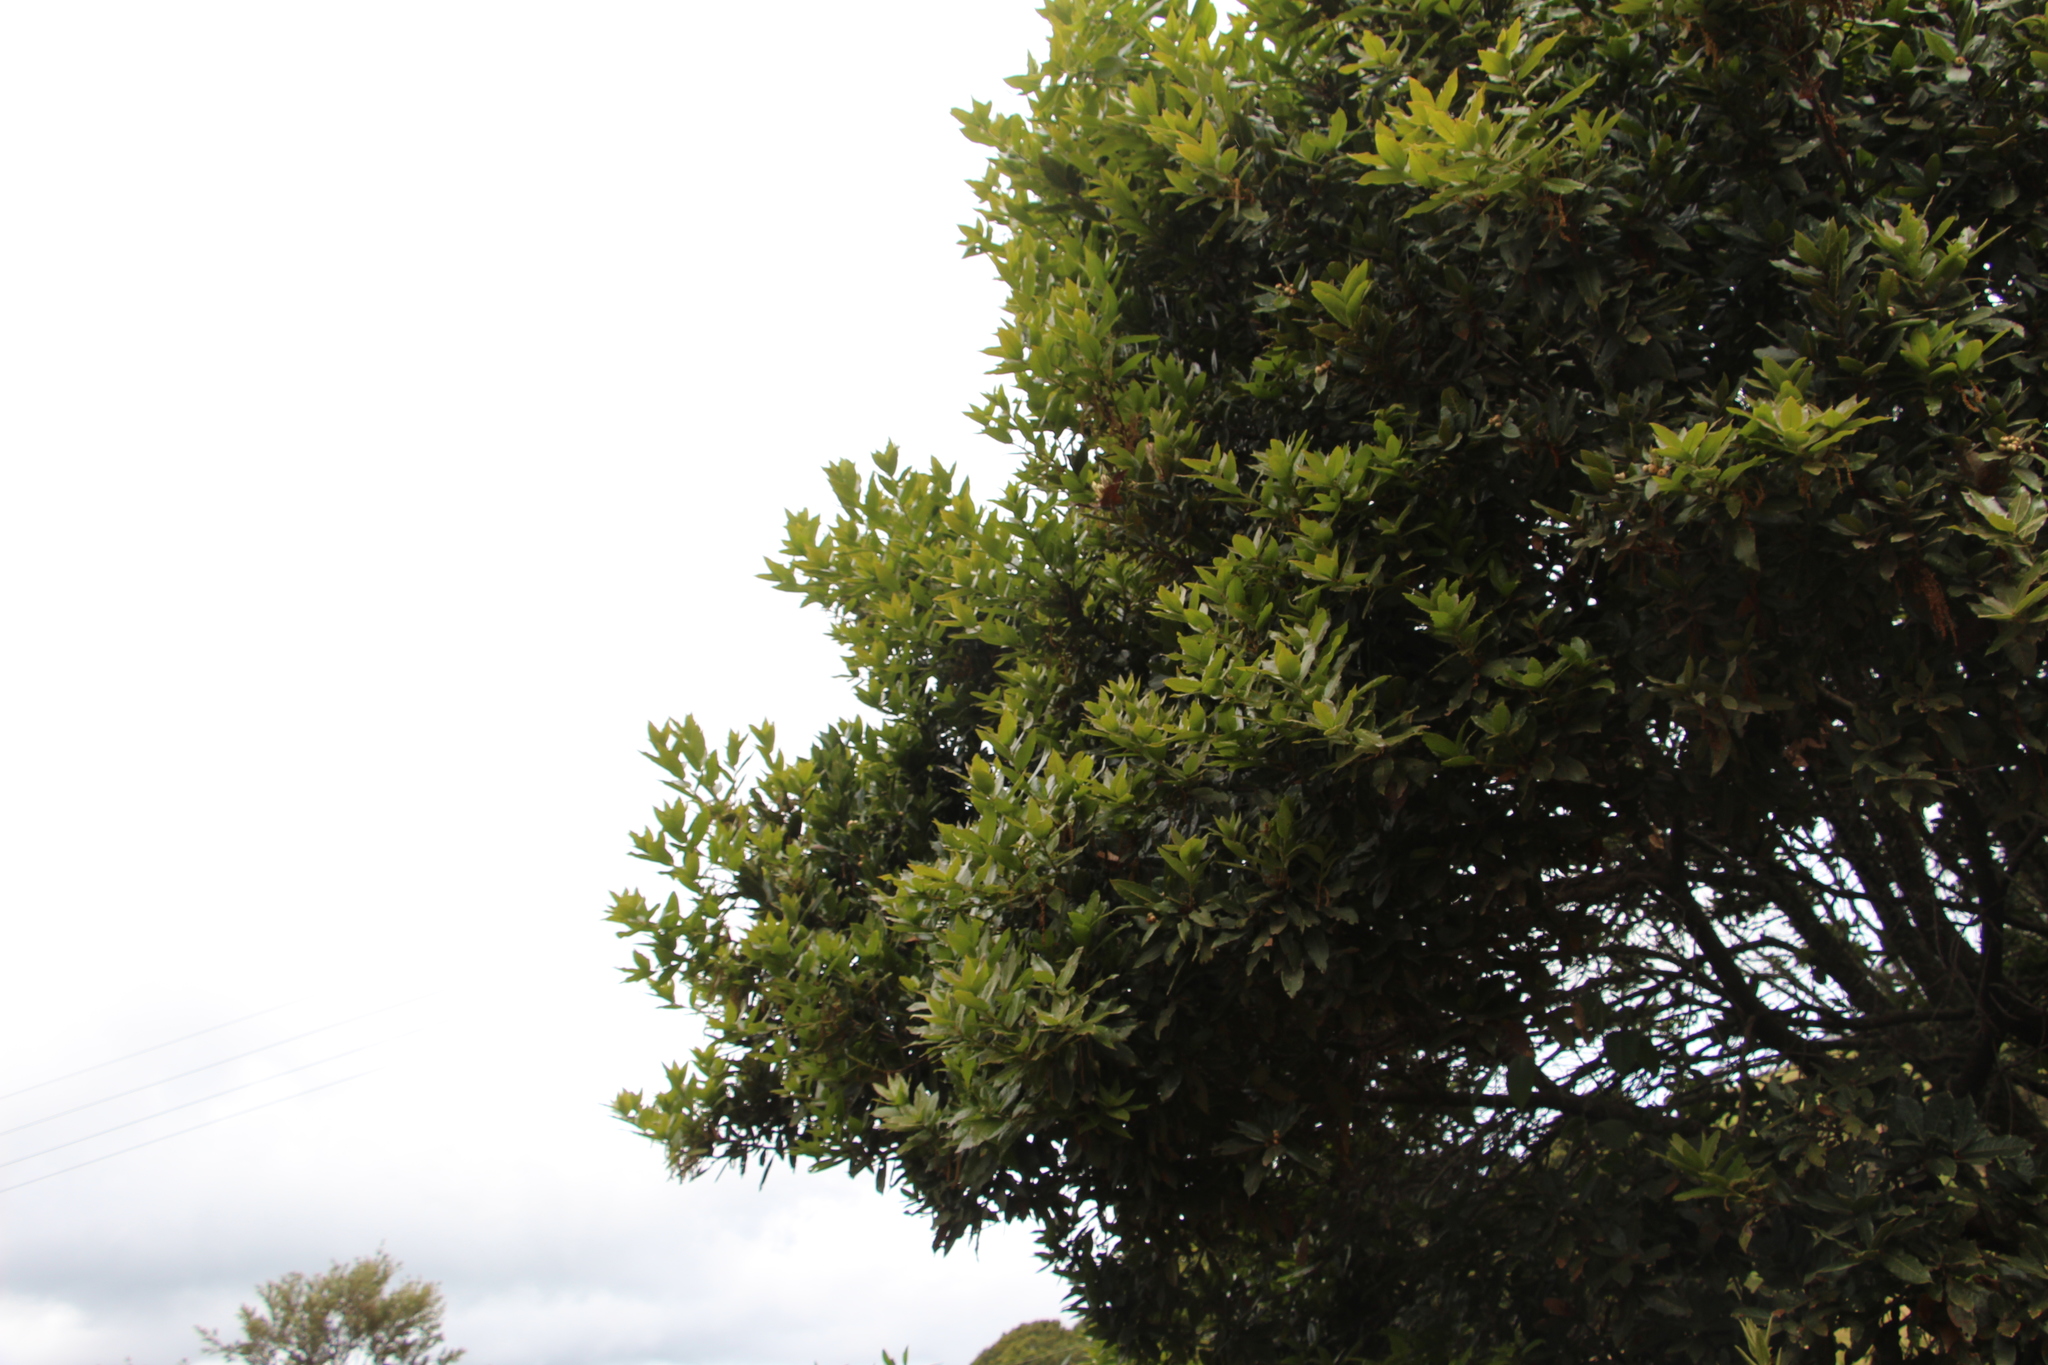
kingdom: Plantae
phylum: Tracheophyta
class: Magnoliopsida
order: Fagales
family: Fagaceae
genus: Quercus
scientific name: Quercus humboldtii
